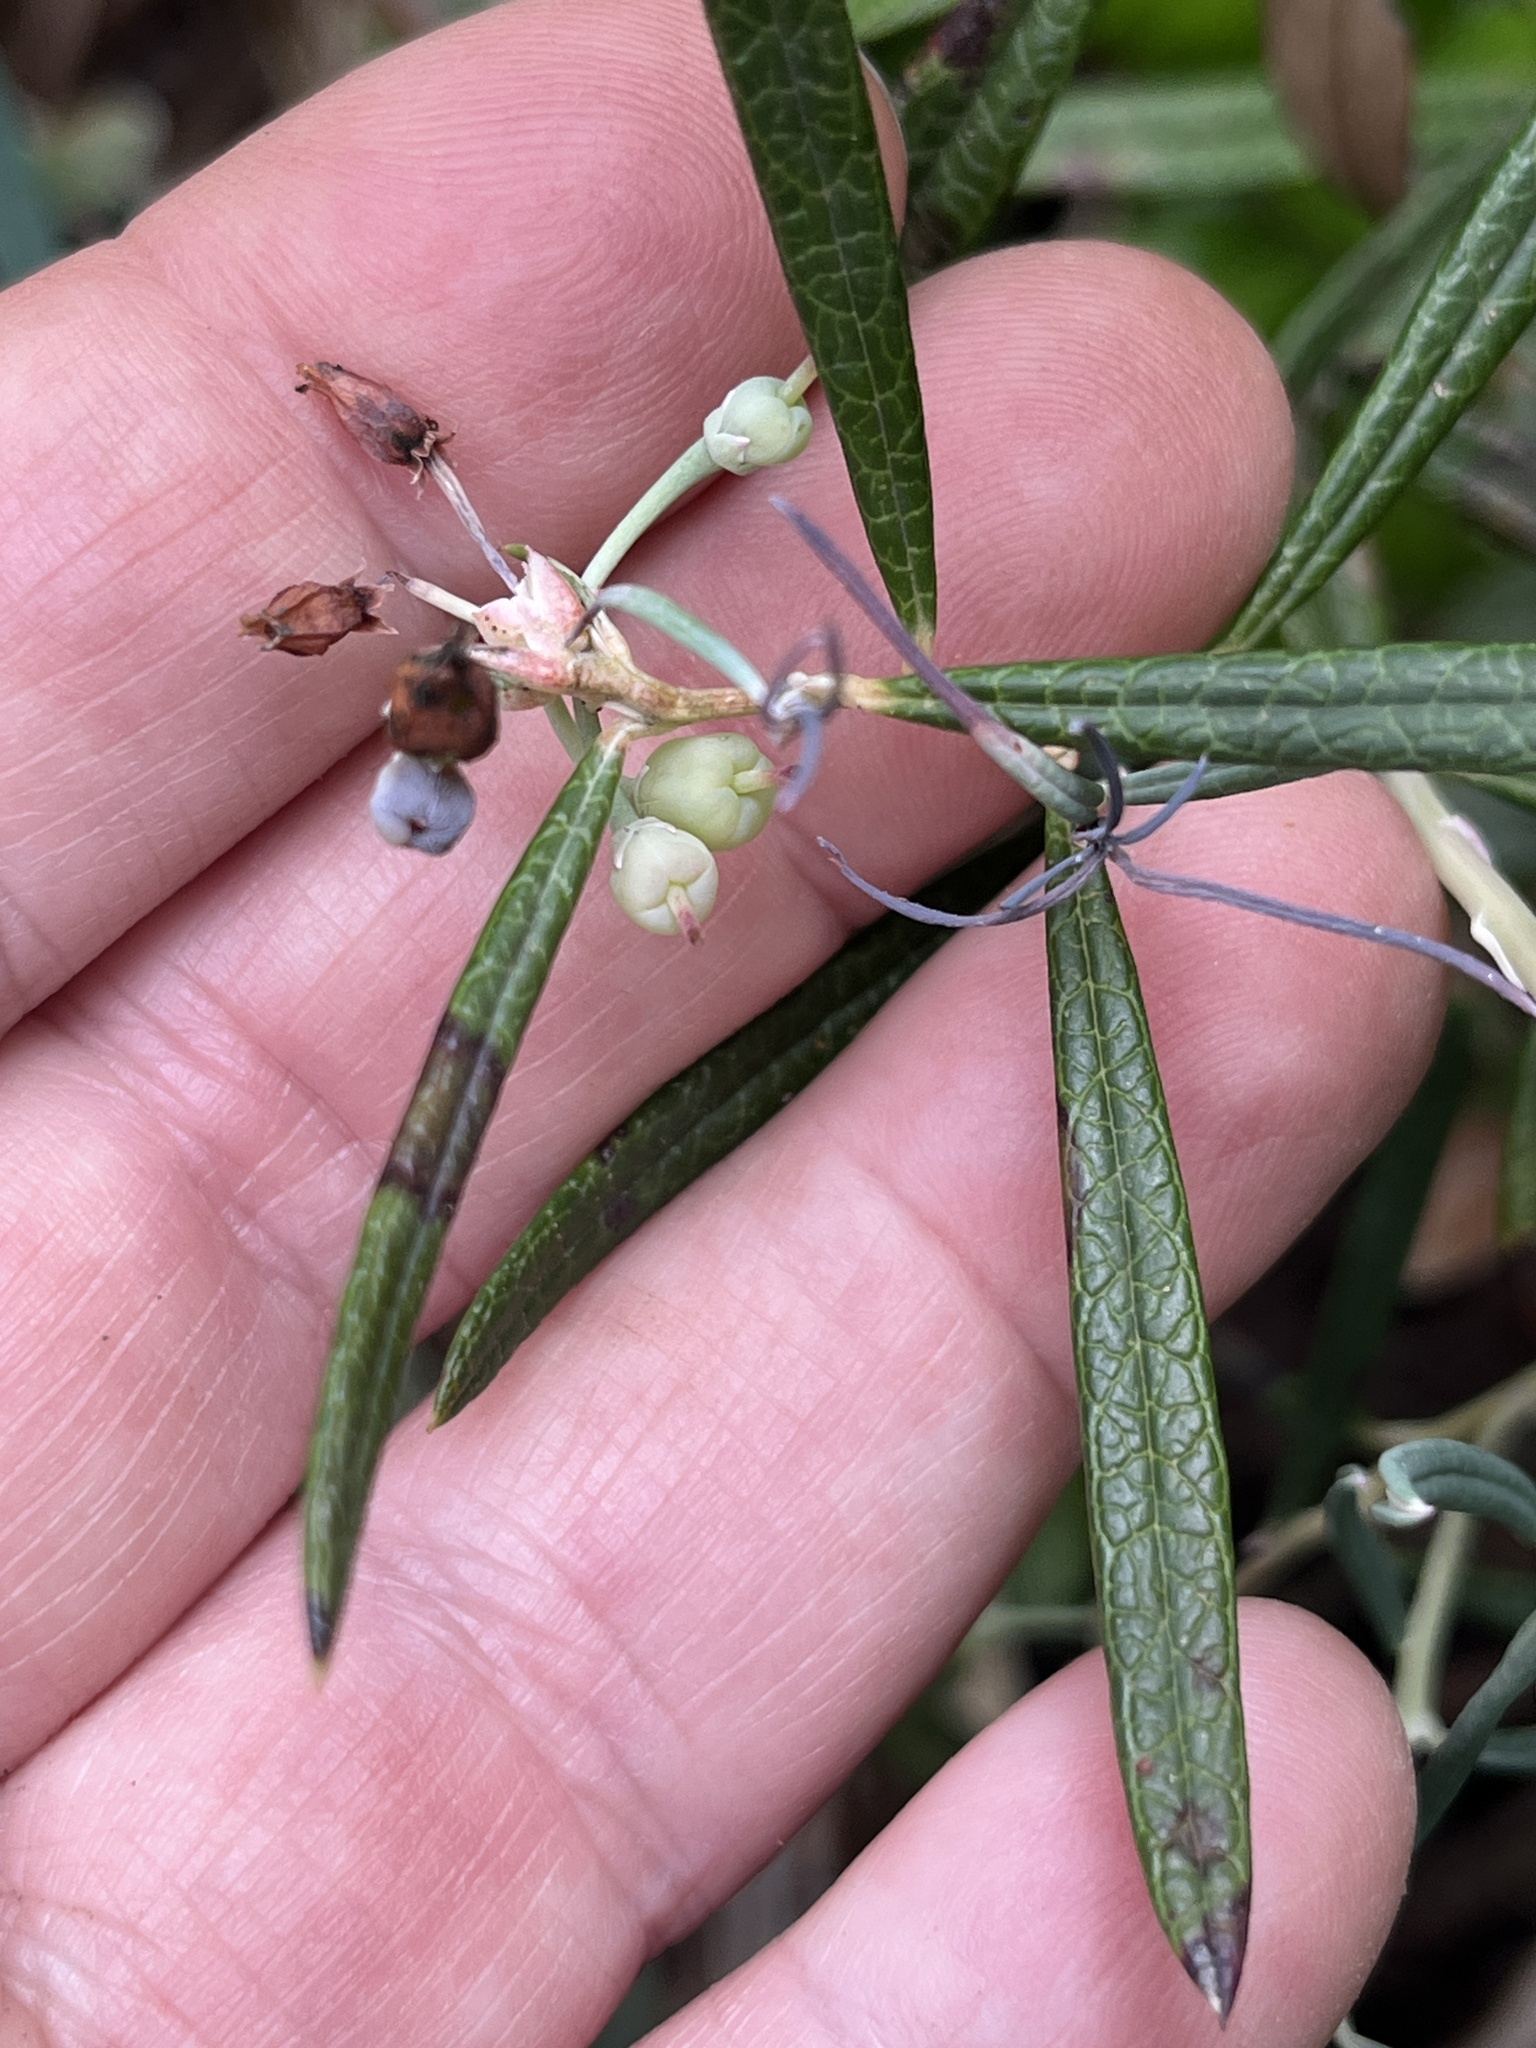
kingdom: Plantae
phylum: Tracheophyta
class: Magnoliopsida
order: Ericales
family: Ericaceae
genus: Andromeda
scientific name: Andromeda polifolia
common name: Bog-rosemary
